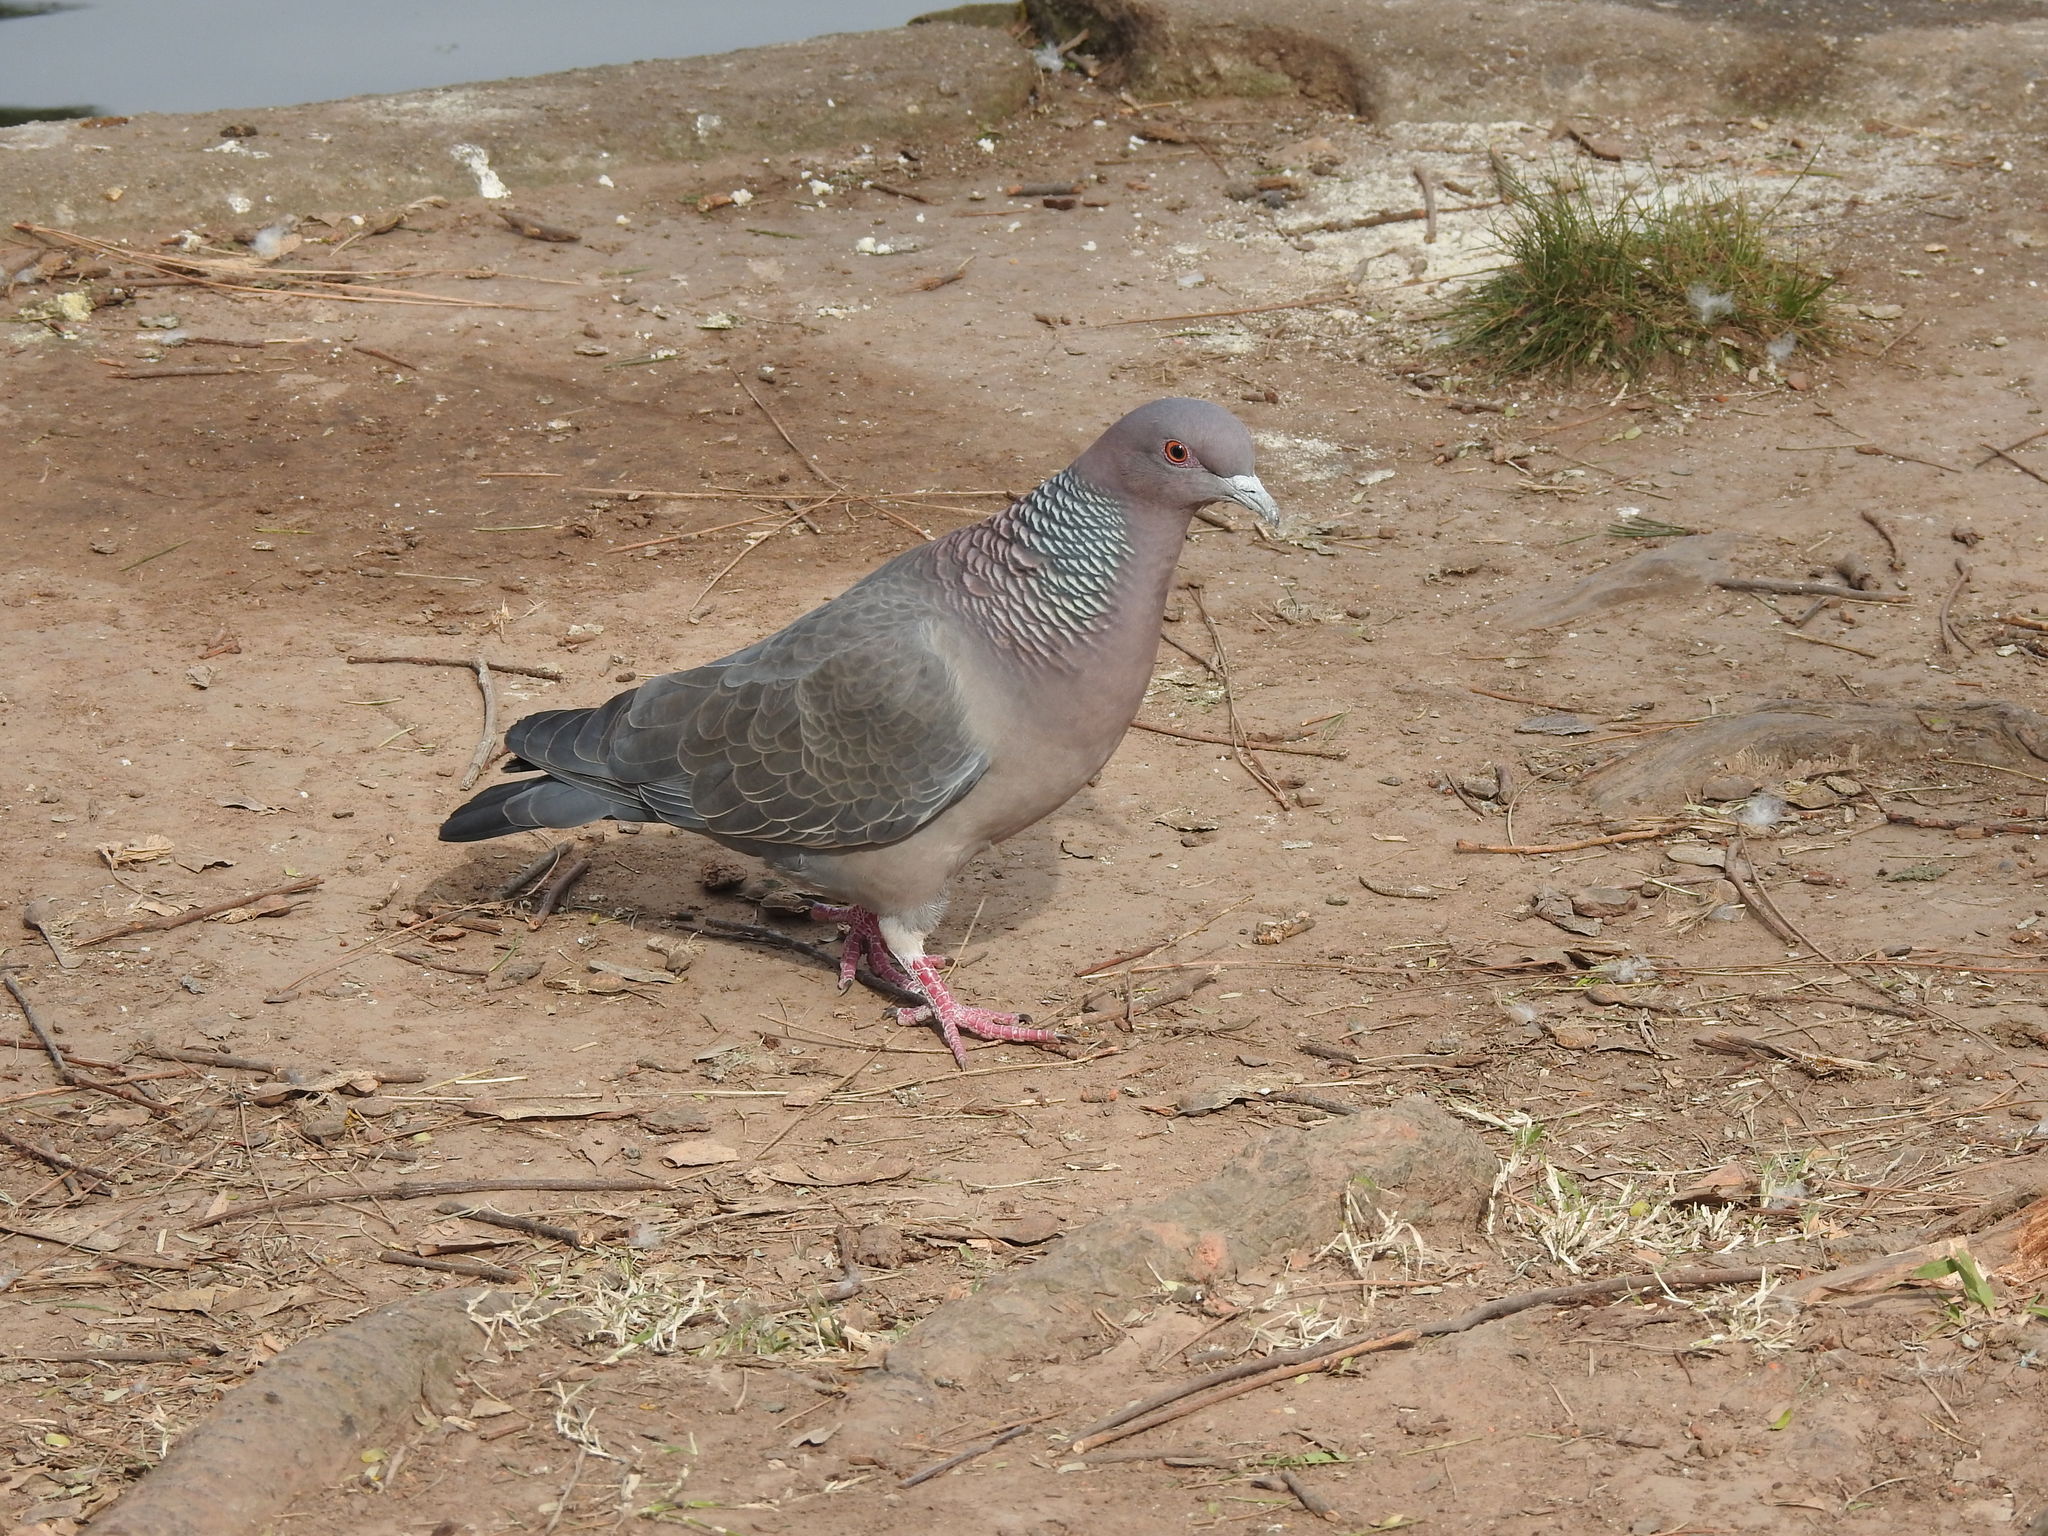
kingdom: Animalia
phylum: Chordata
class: Aves
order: Columbiformes
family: Columbidae
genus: Patagioenas
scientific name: Patagioenas picazuro
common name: Picazuro pigeon
